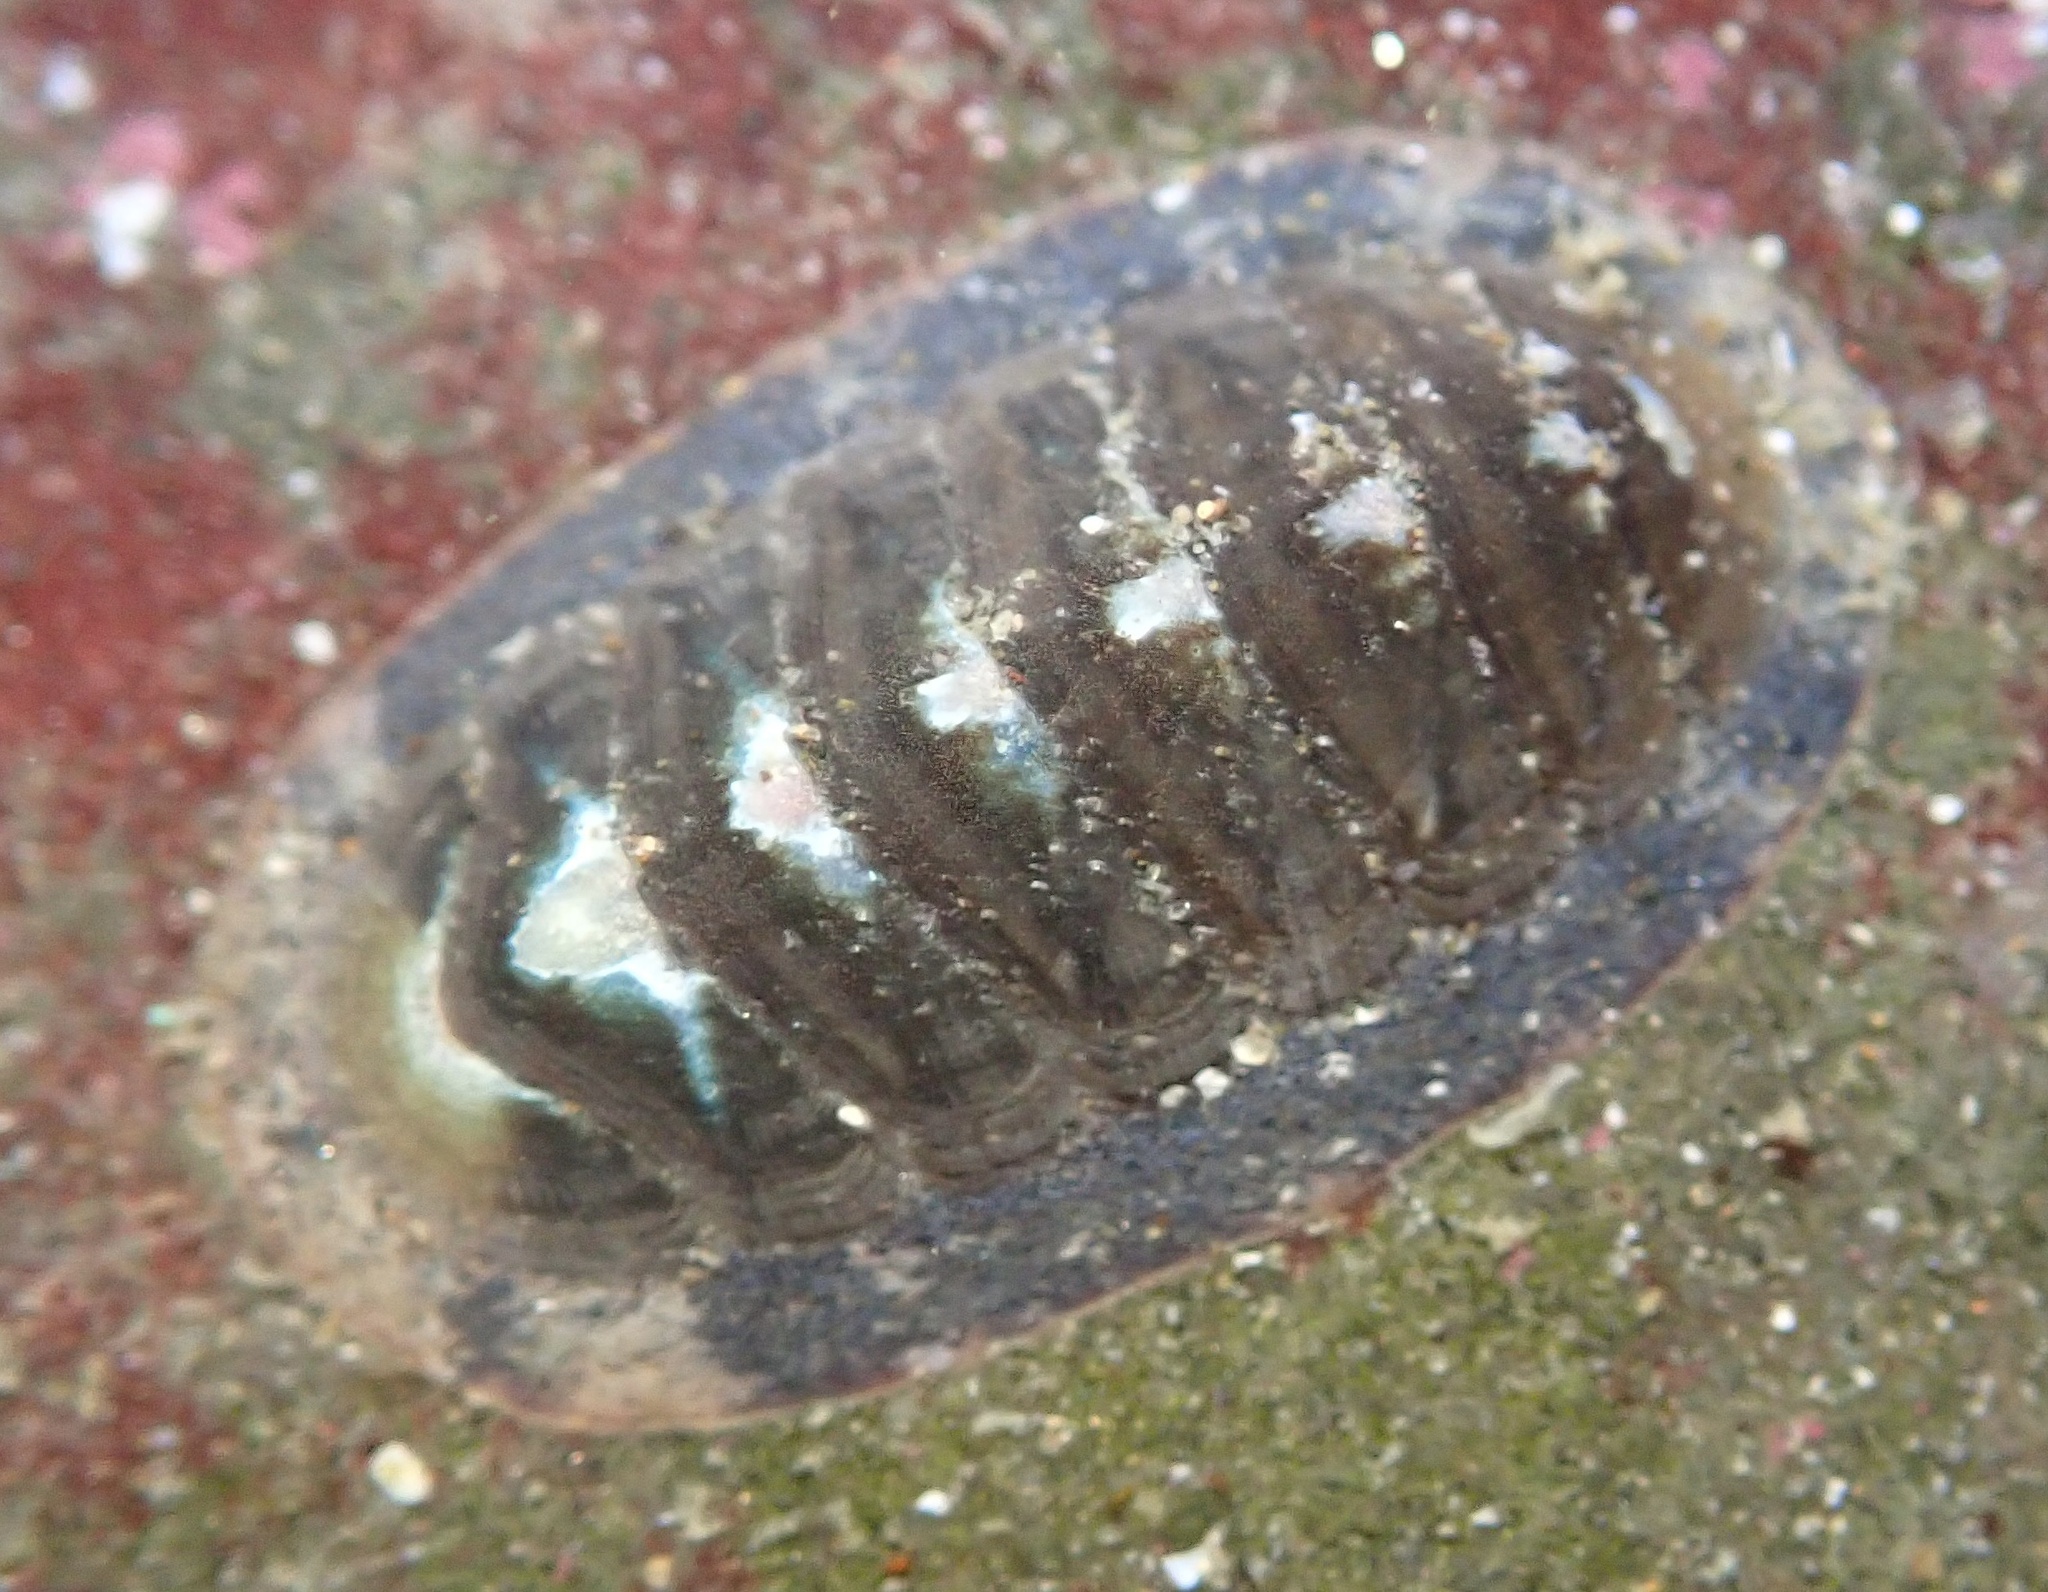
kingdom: Animalia
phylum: Mollusca
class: Polyplacophora
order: Chitonida
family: Ischnochitonidae
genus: Lepidozona
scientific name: Lepidozona radians
